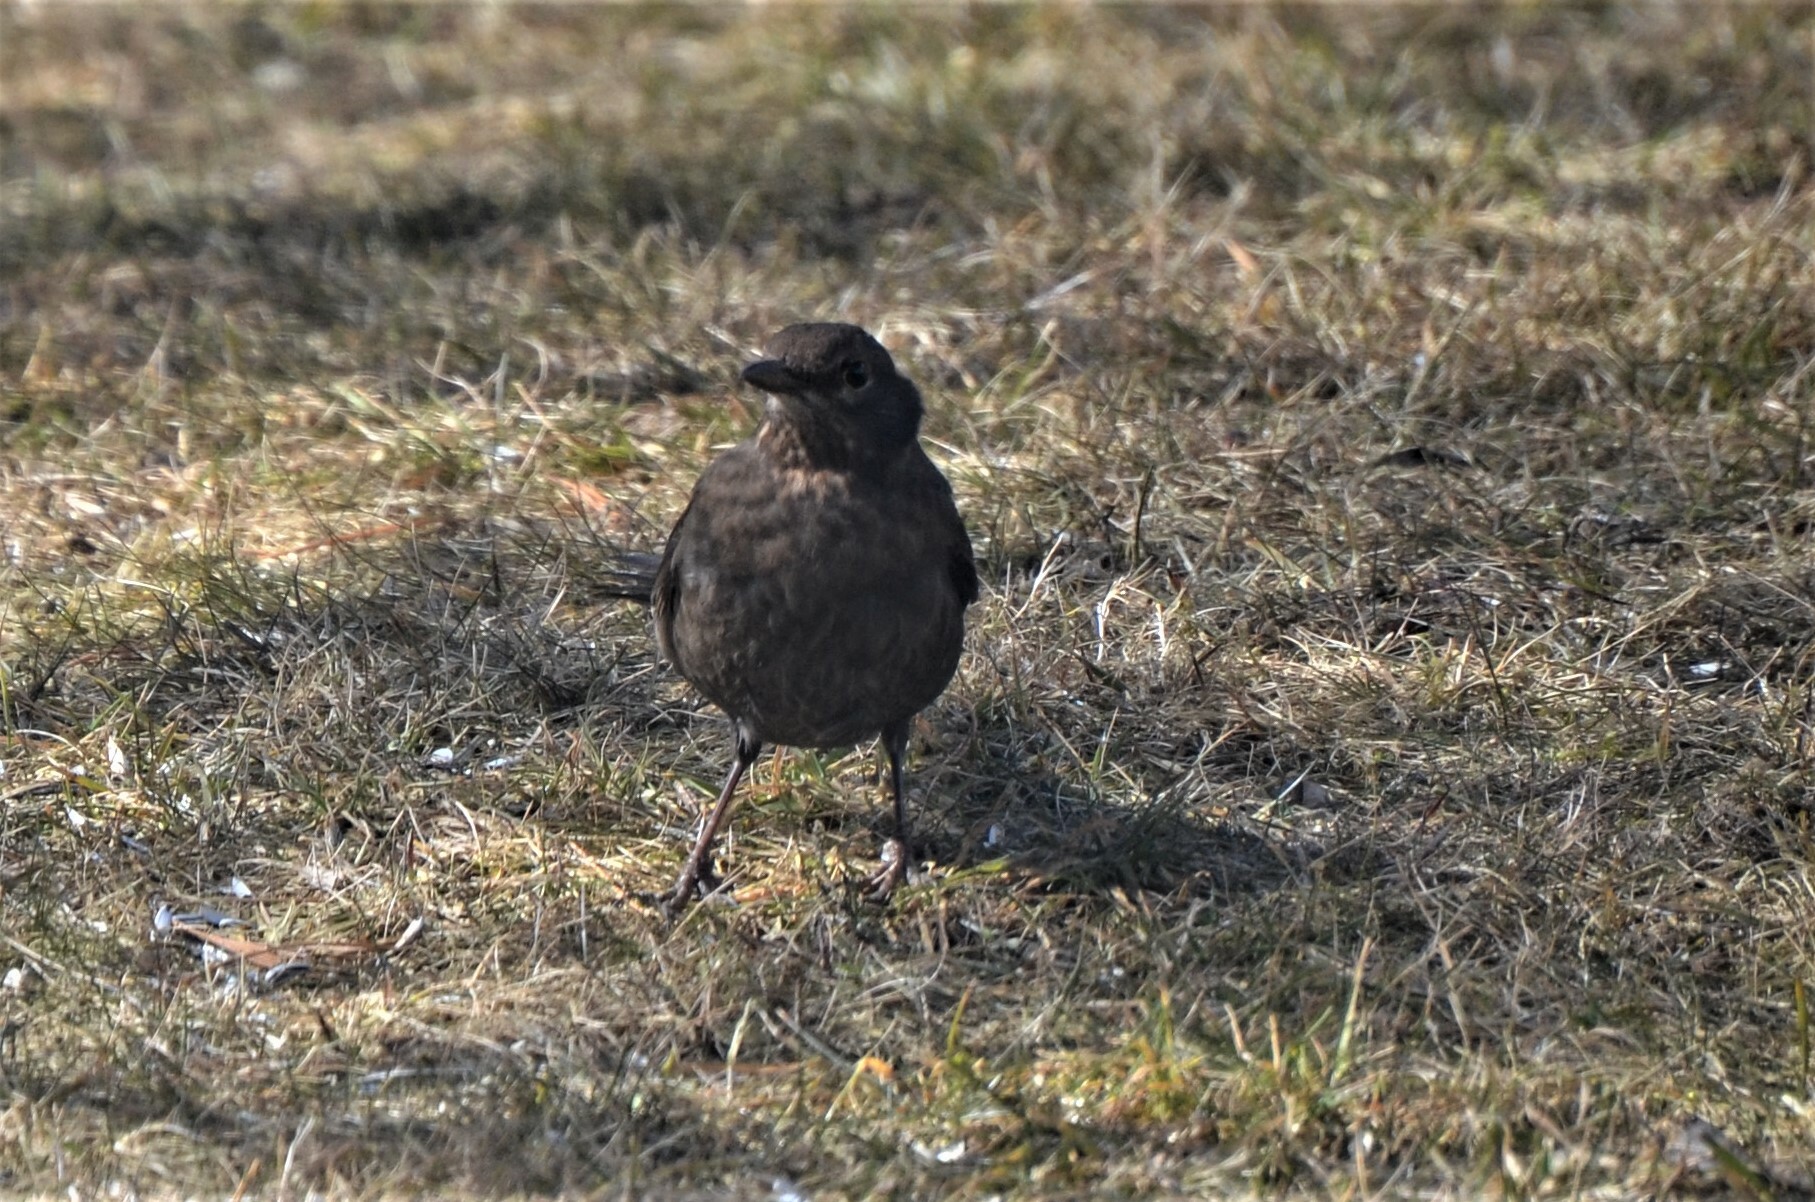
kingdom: Animalia
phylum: Chordata
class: Aves
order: Passeriformes
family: Turdidae
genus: Turdus
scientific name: Turdus merula
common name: Common blackbird
